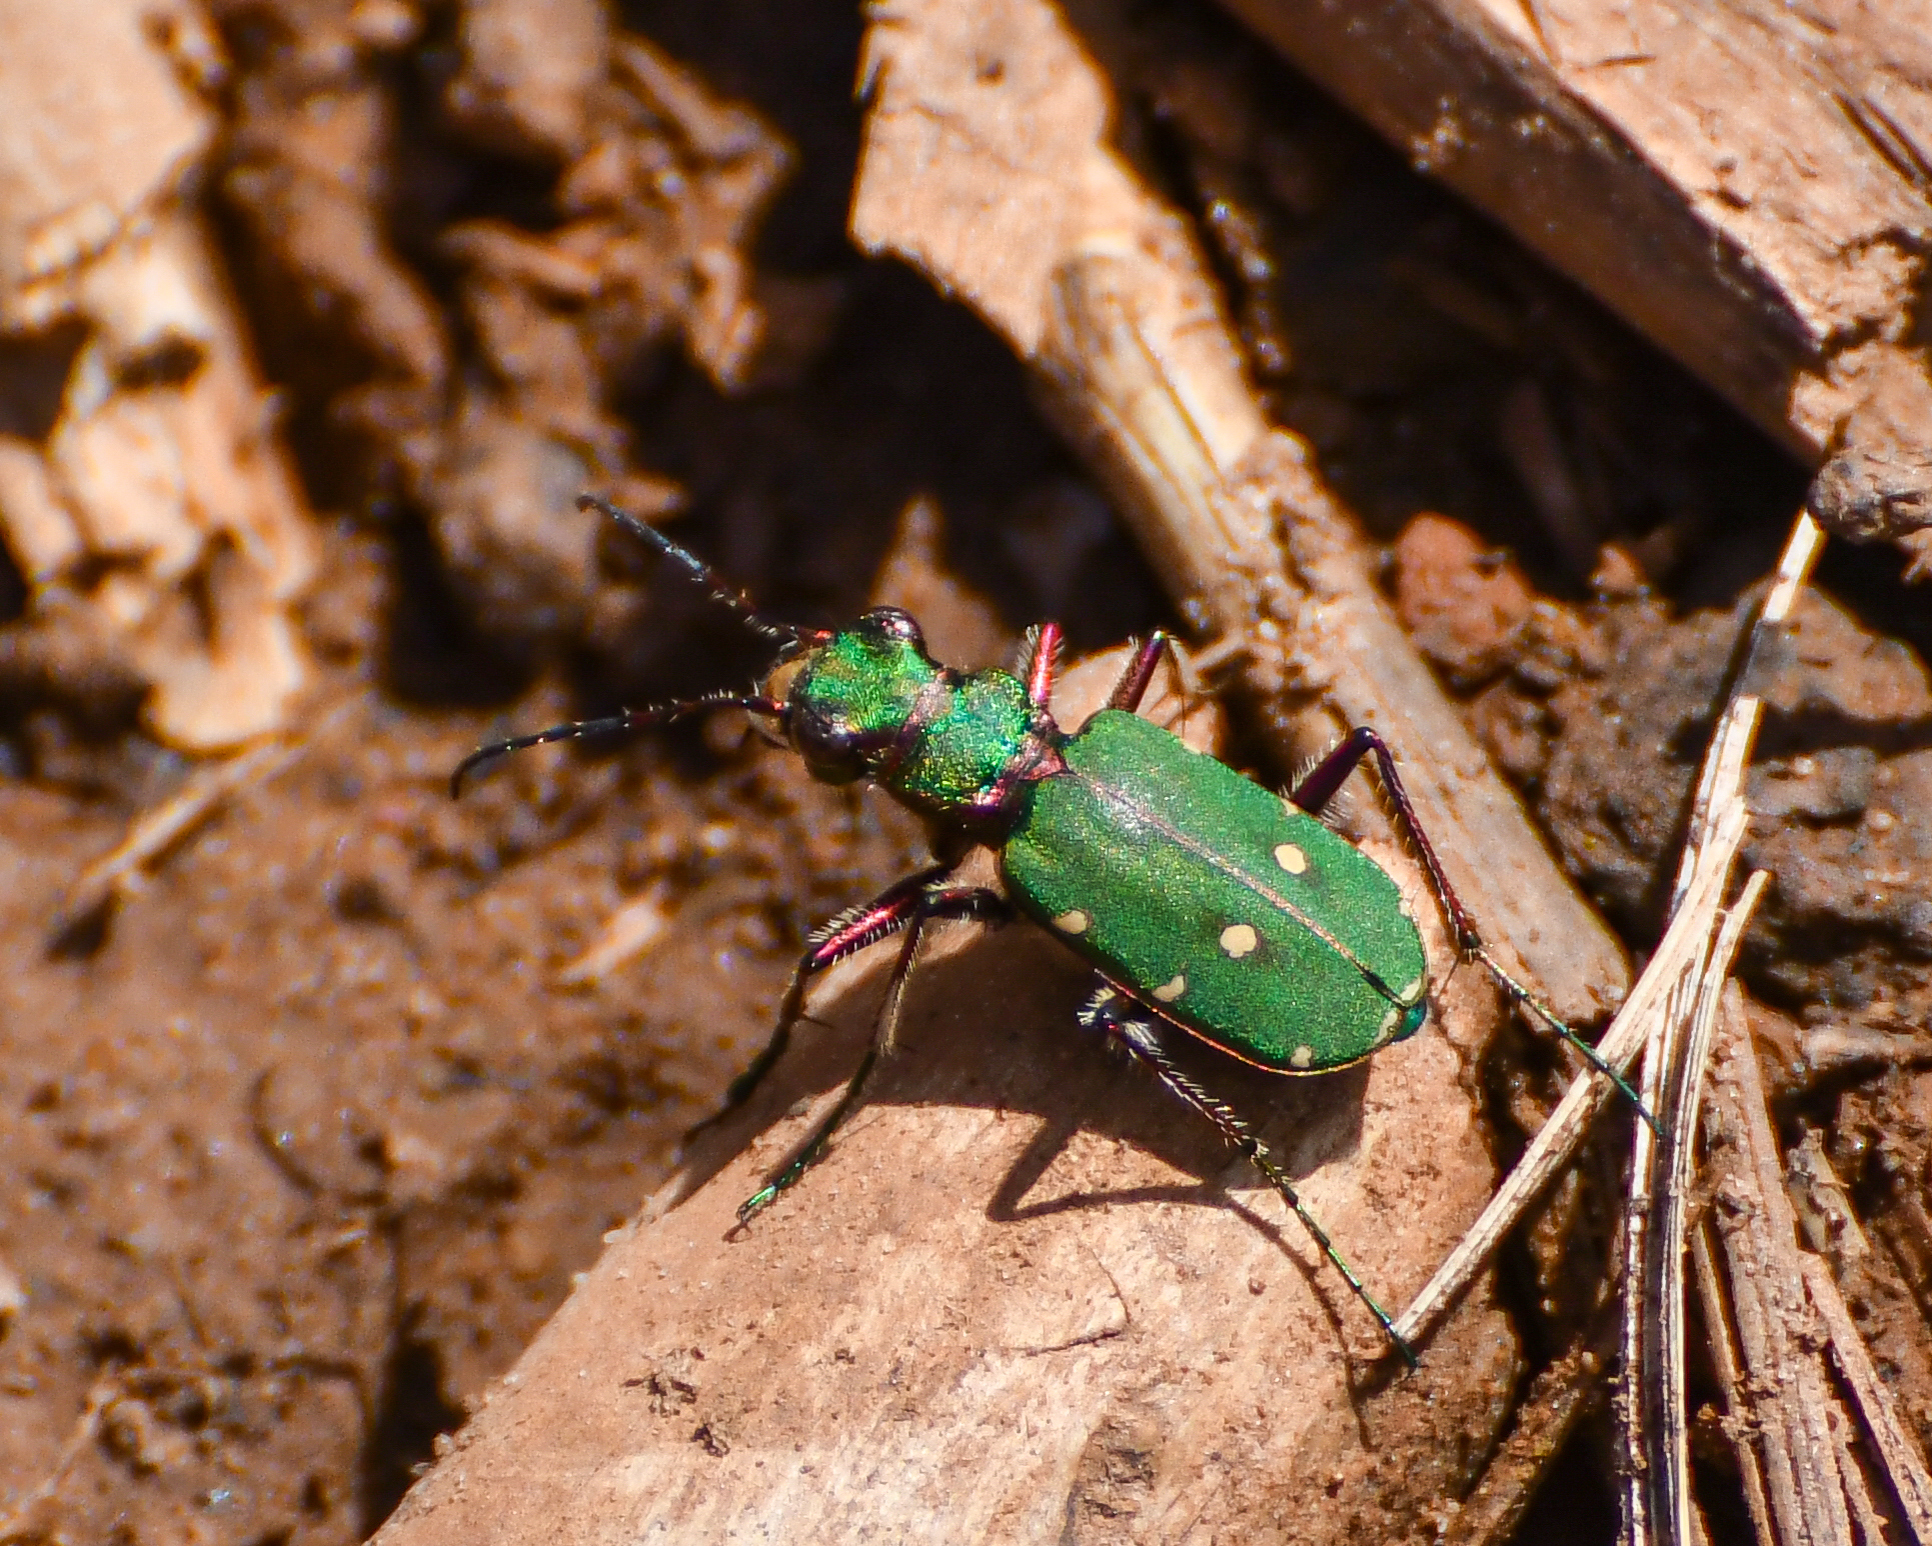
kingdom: Animalia
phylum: Arthropoda
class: Insecta
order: Coleoptera
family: Carabidae
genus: Cicindela
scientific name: Cicindela campestris
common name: Common tiger beetle
